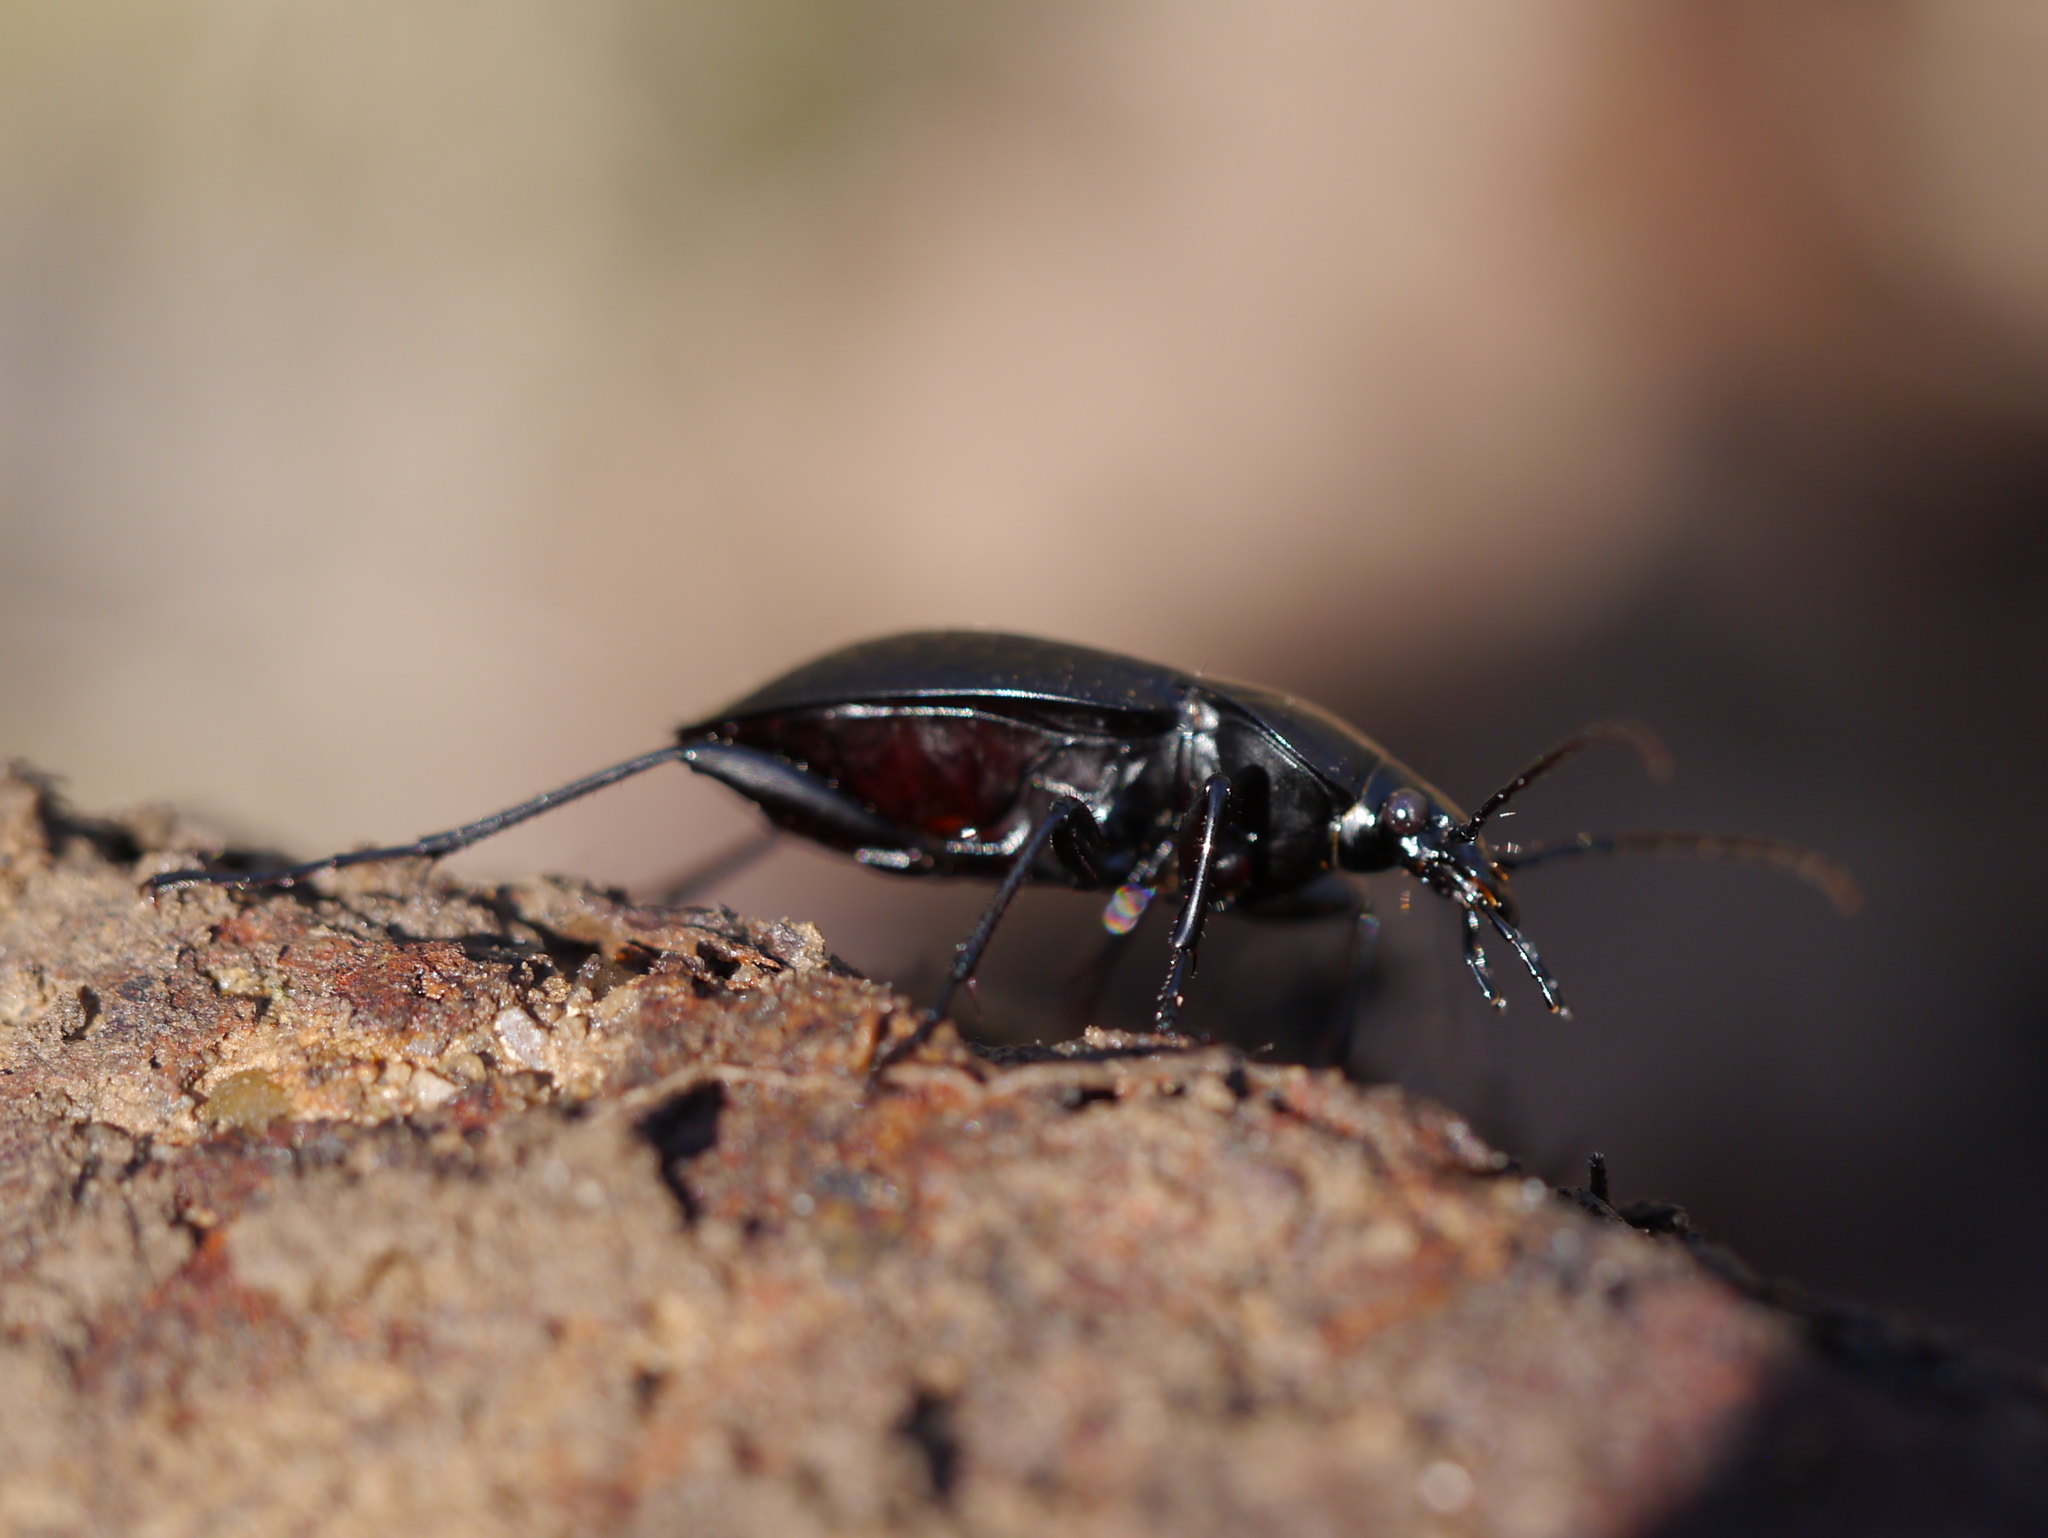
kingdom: Animalia
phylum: Arthropoda
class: Insecta
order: Coleoptera
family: Carabidae
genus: Carabus
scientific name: Carabus vinctus
